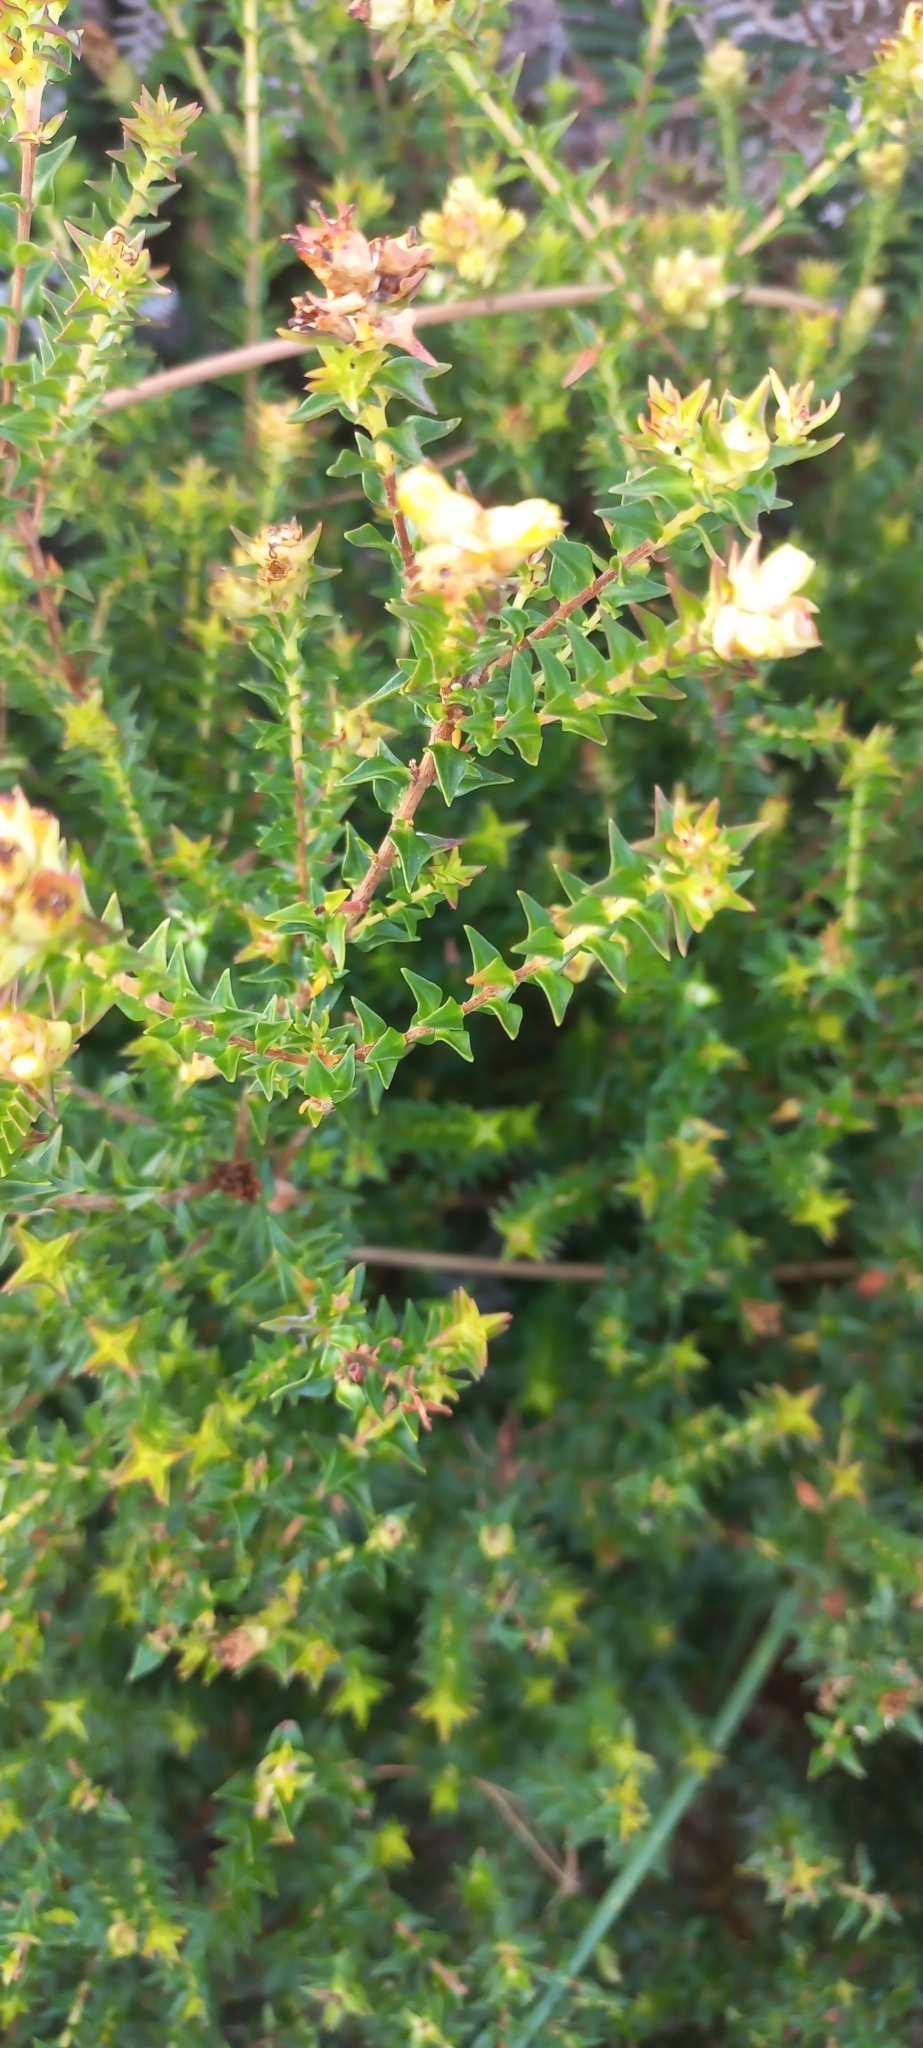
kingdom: Plantae
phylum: Tracheophyta
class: Magnoliopsida
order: Myrtales
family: Penaeaceae
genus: Penaea
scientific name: Penaea mucronata
